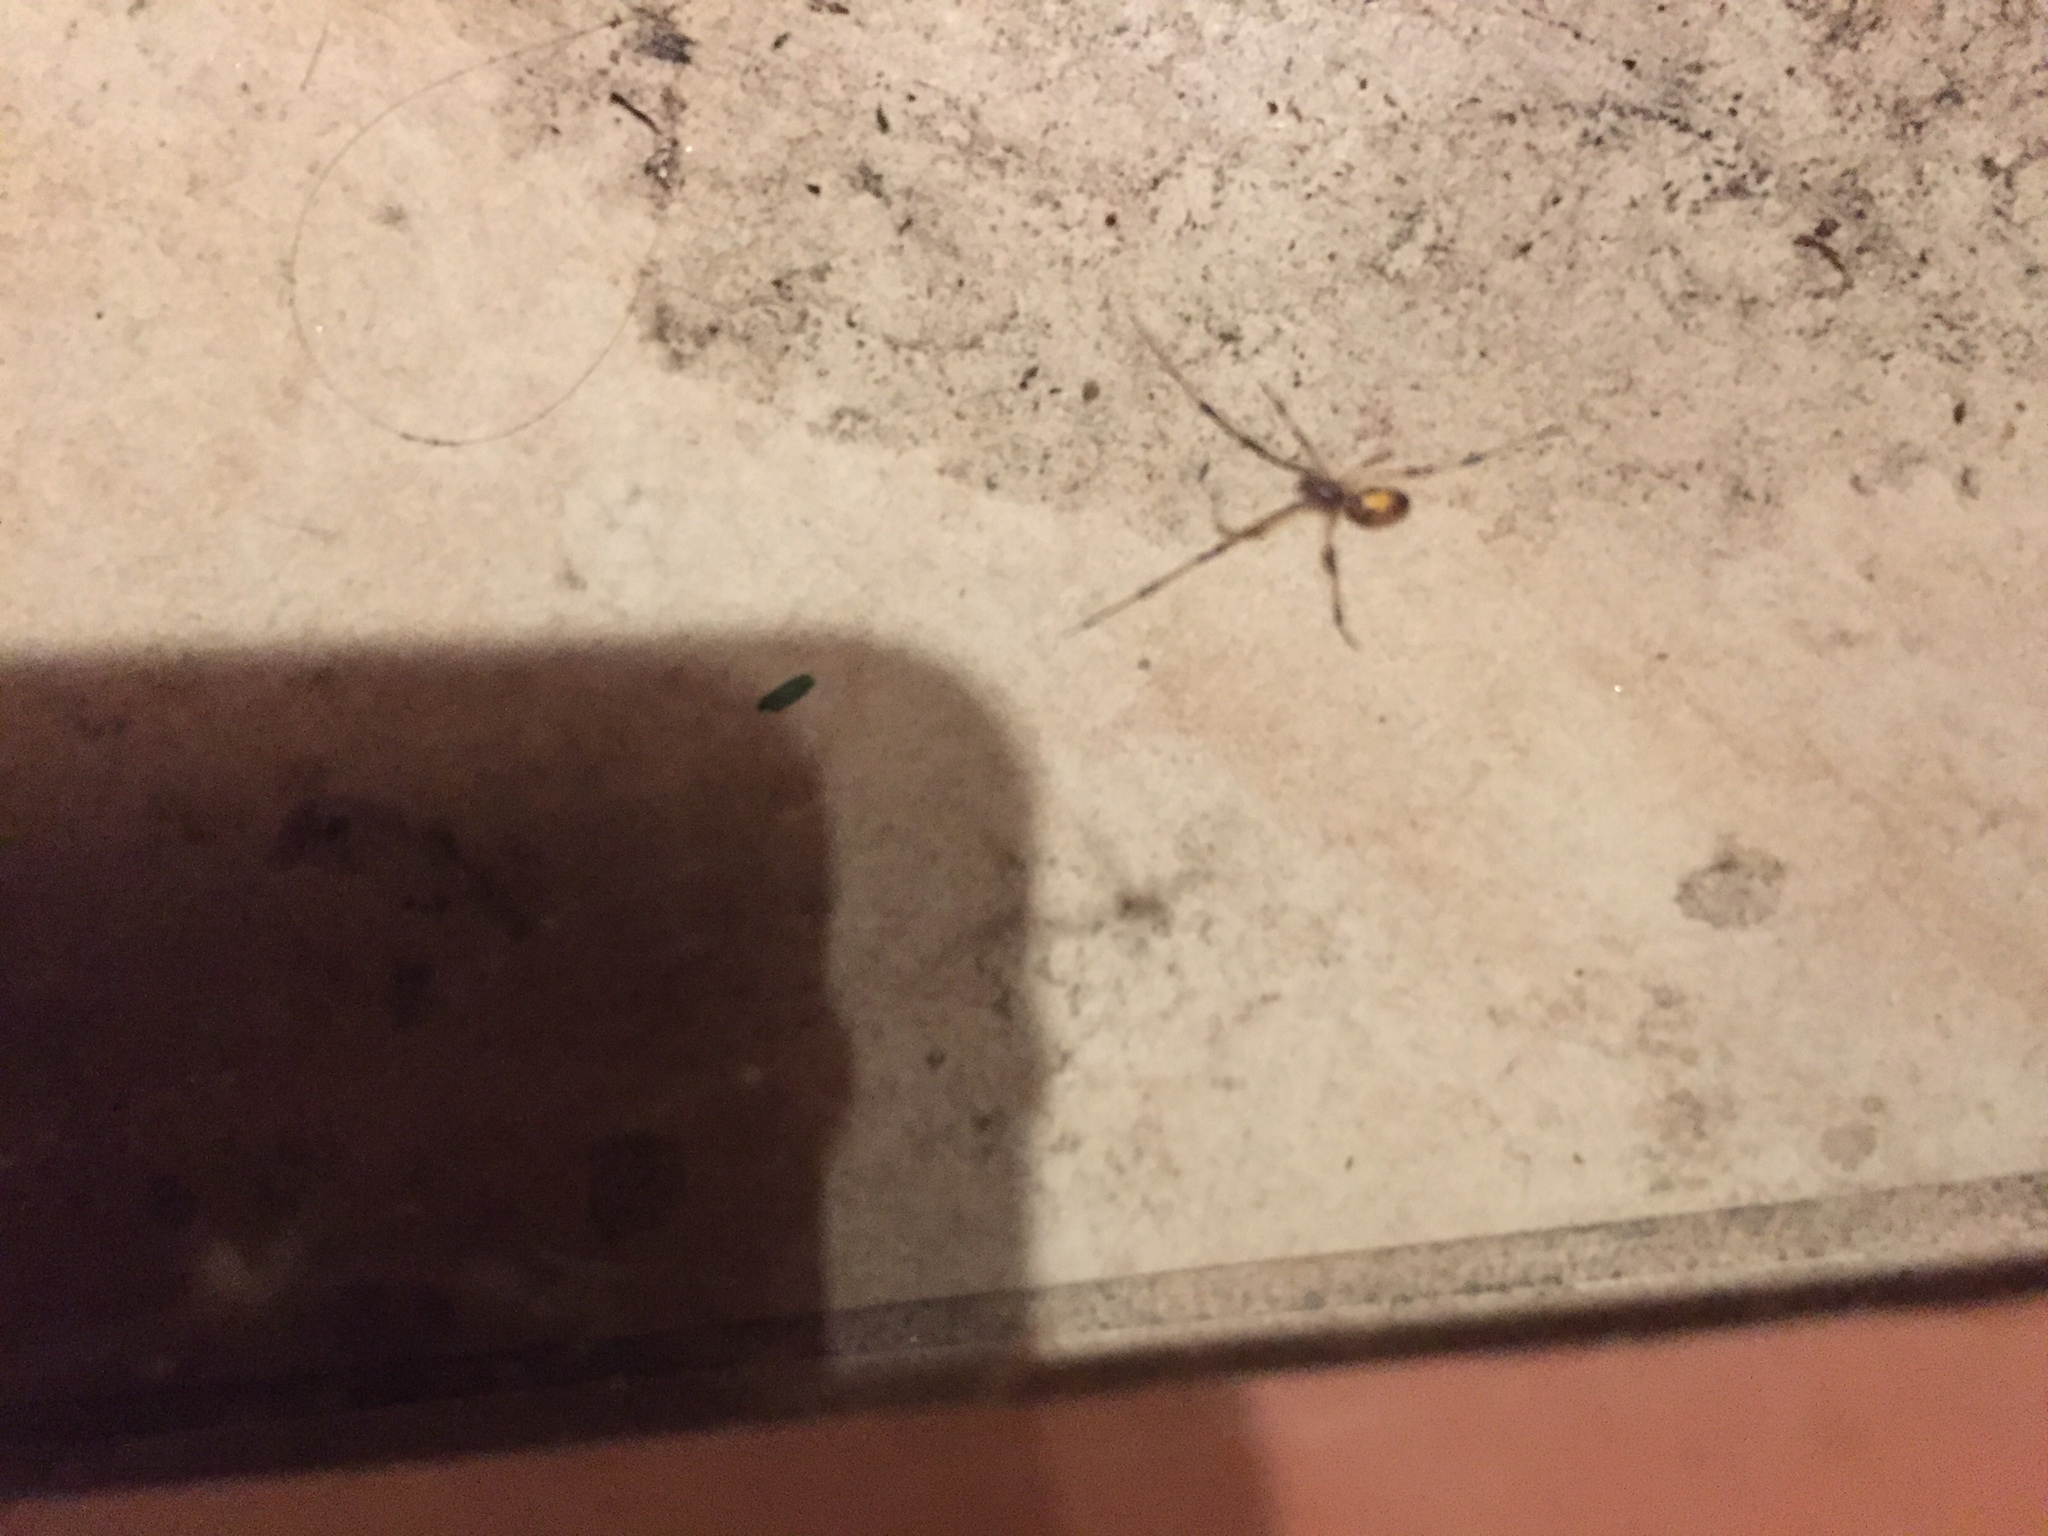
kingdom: Animalia
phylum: Arthropoda
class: Arachnida
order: Araneae
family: Theridiidae
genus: Latrodectus
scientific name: Latrodectus geometricus
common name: Brown widow spider
